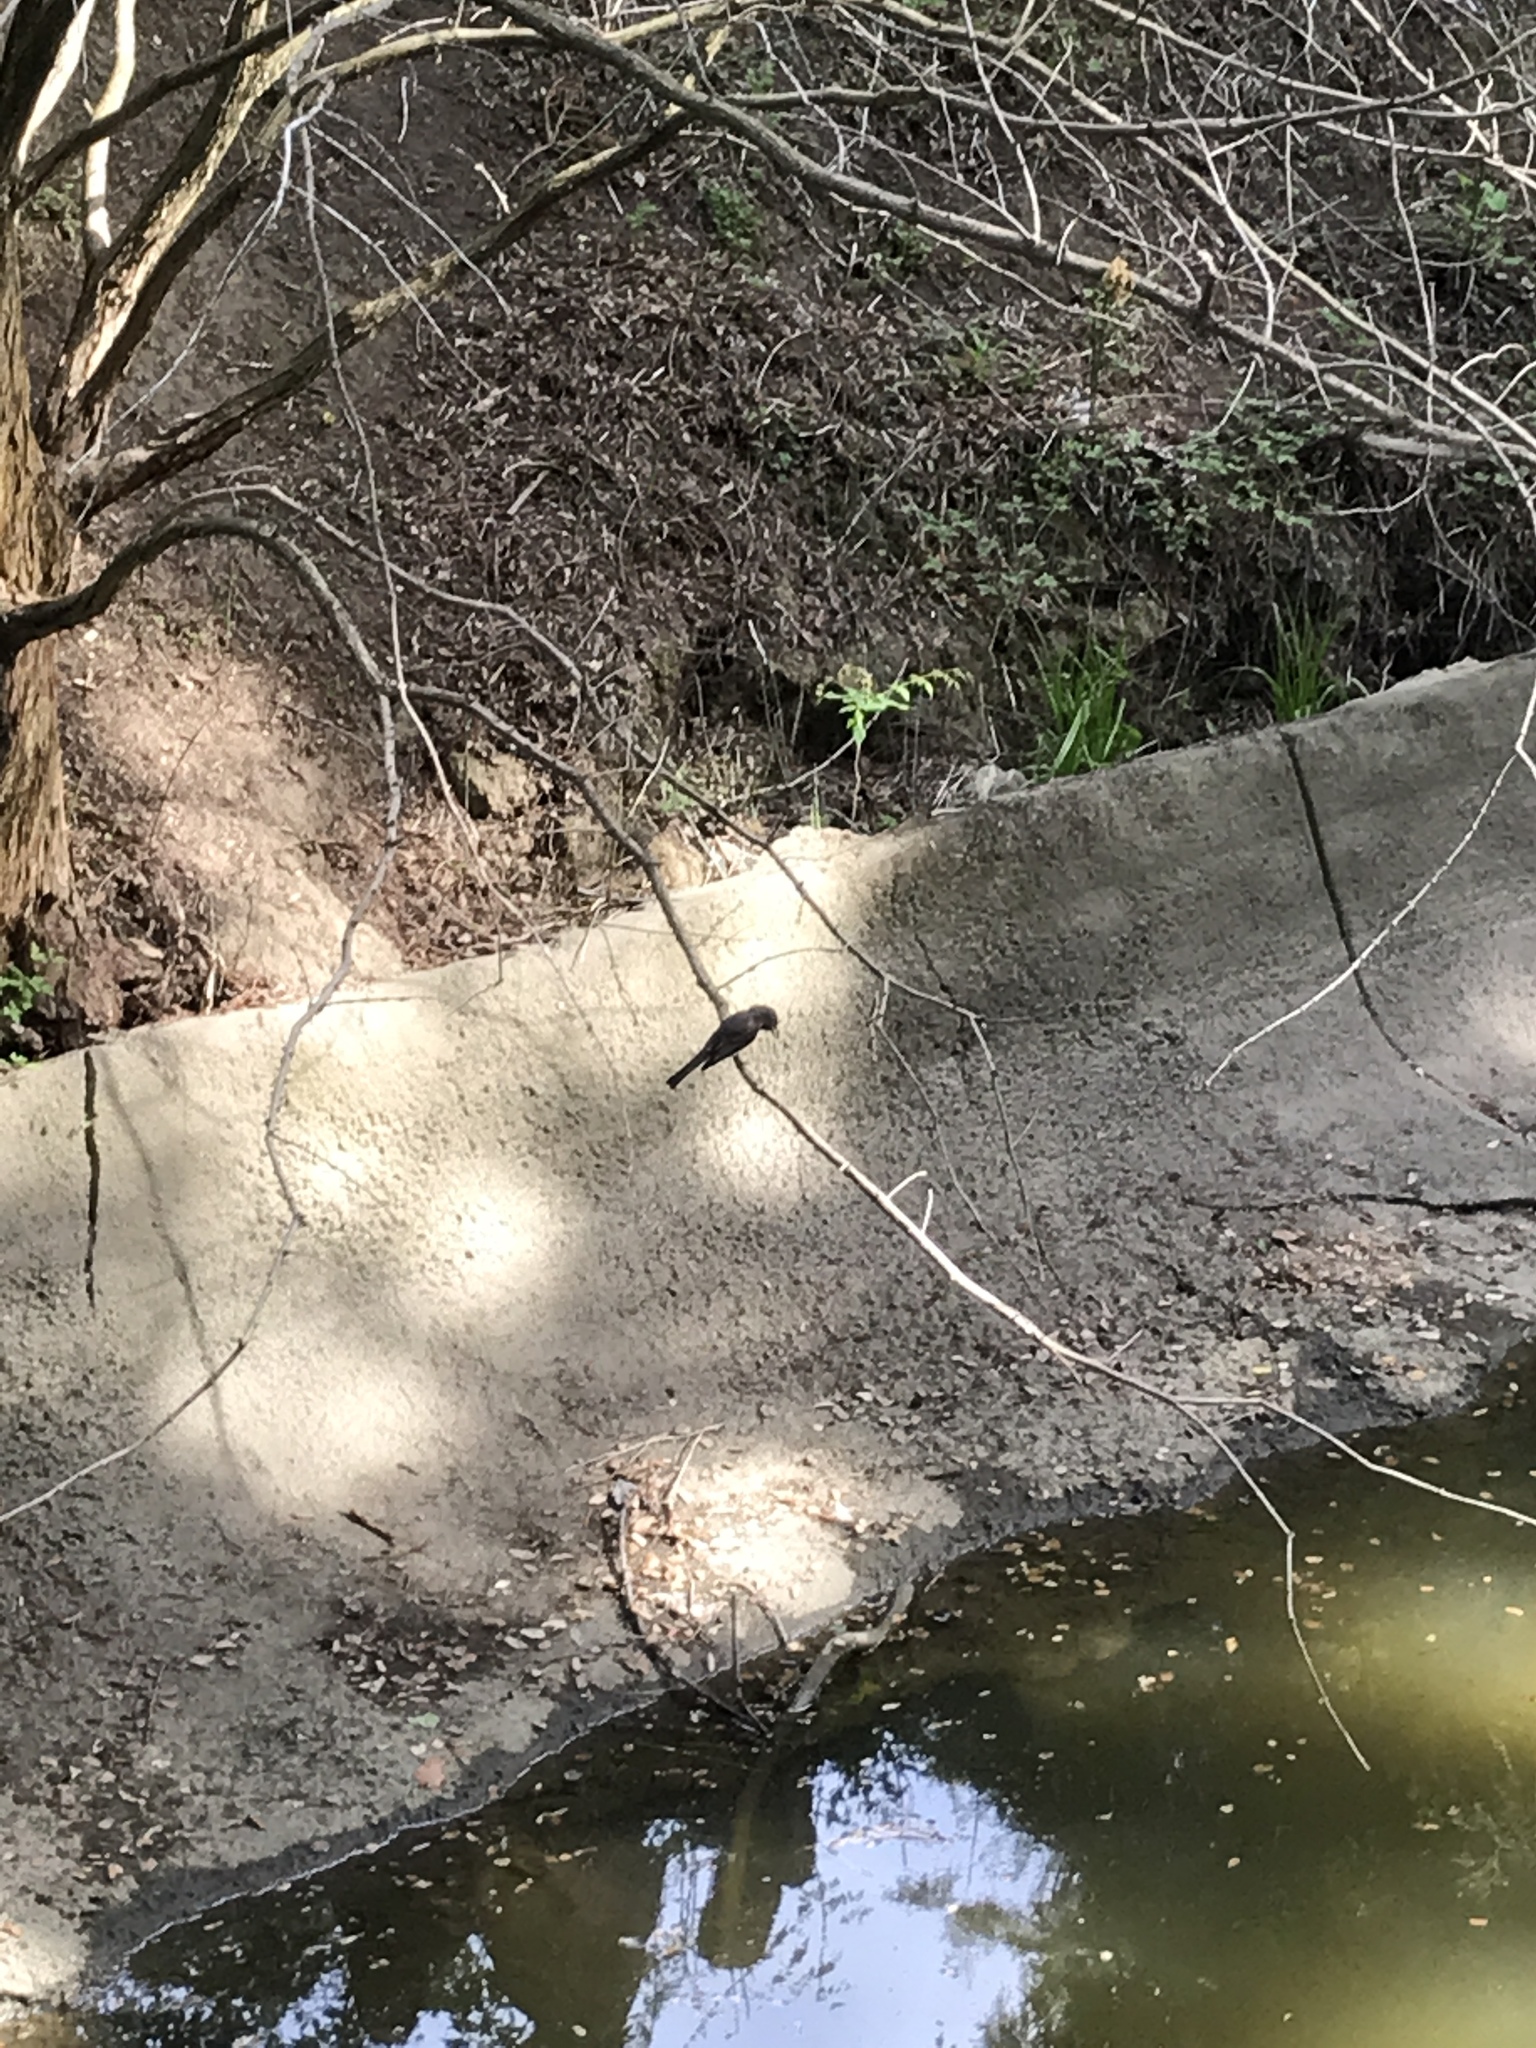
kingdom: Animalia
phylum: Chordata
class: Aves
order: Passeriformes
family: Tyrannidae
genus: Sayornis
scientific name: Sayornis nigricans
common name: Black phoebe
